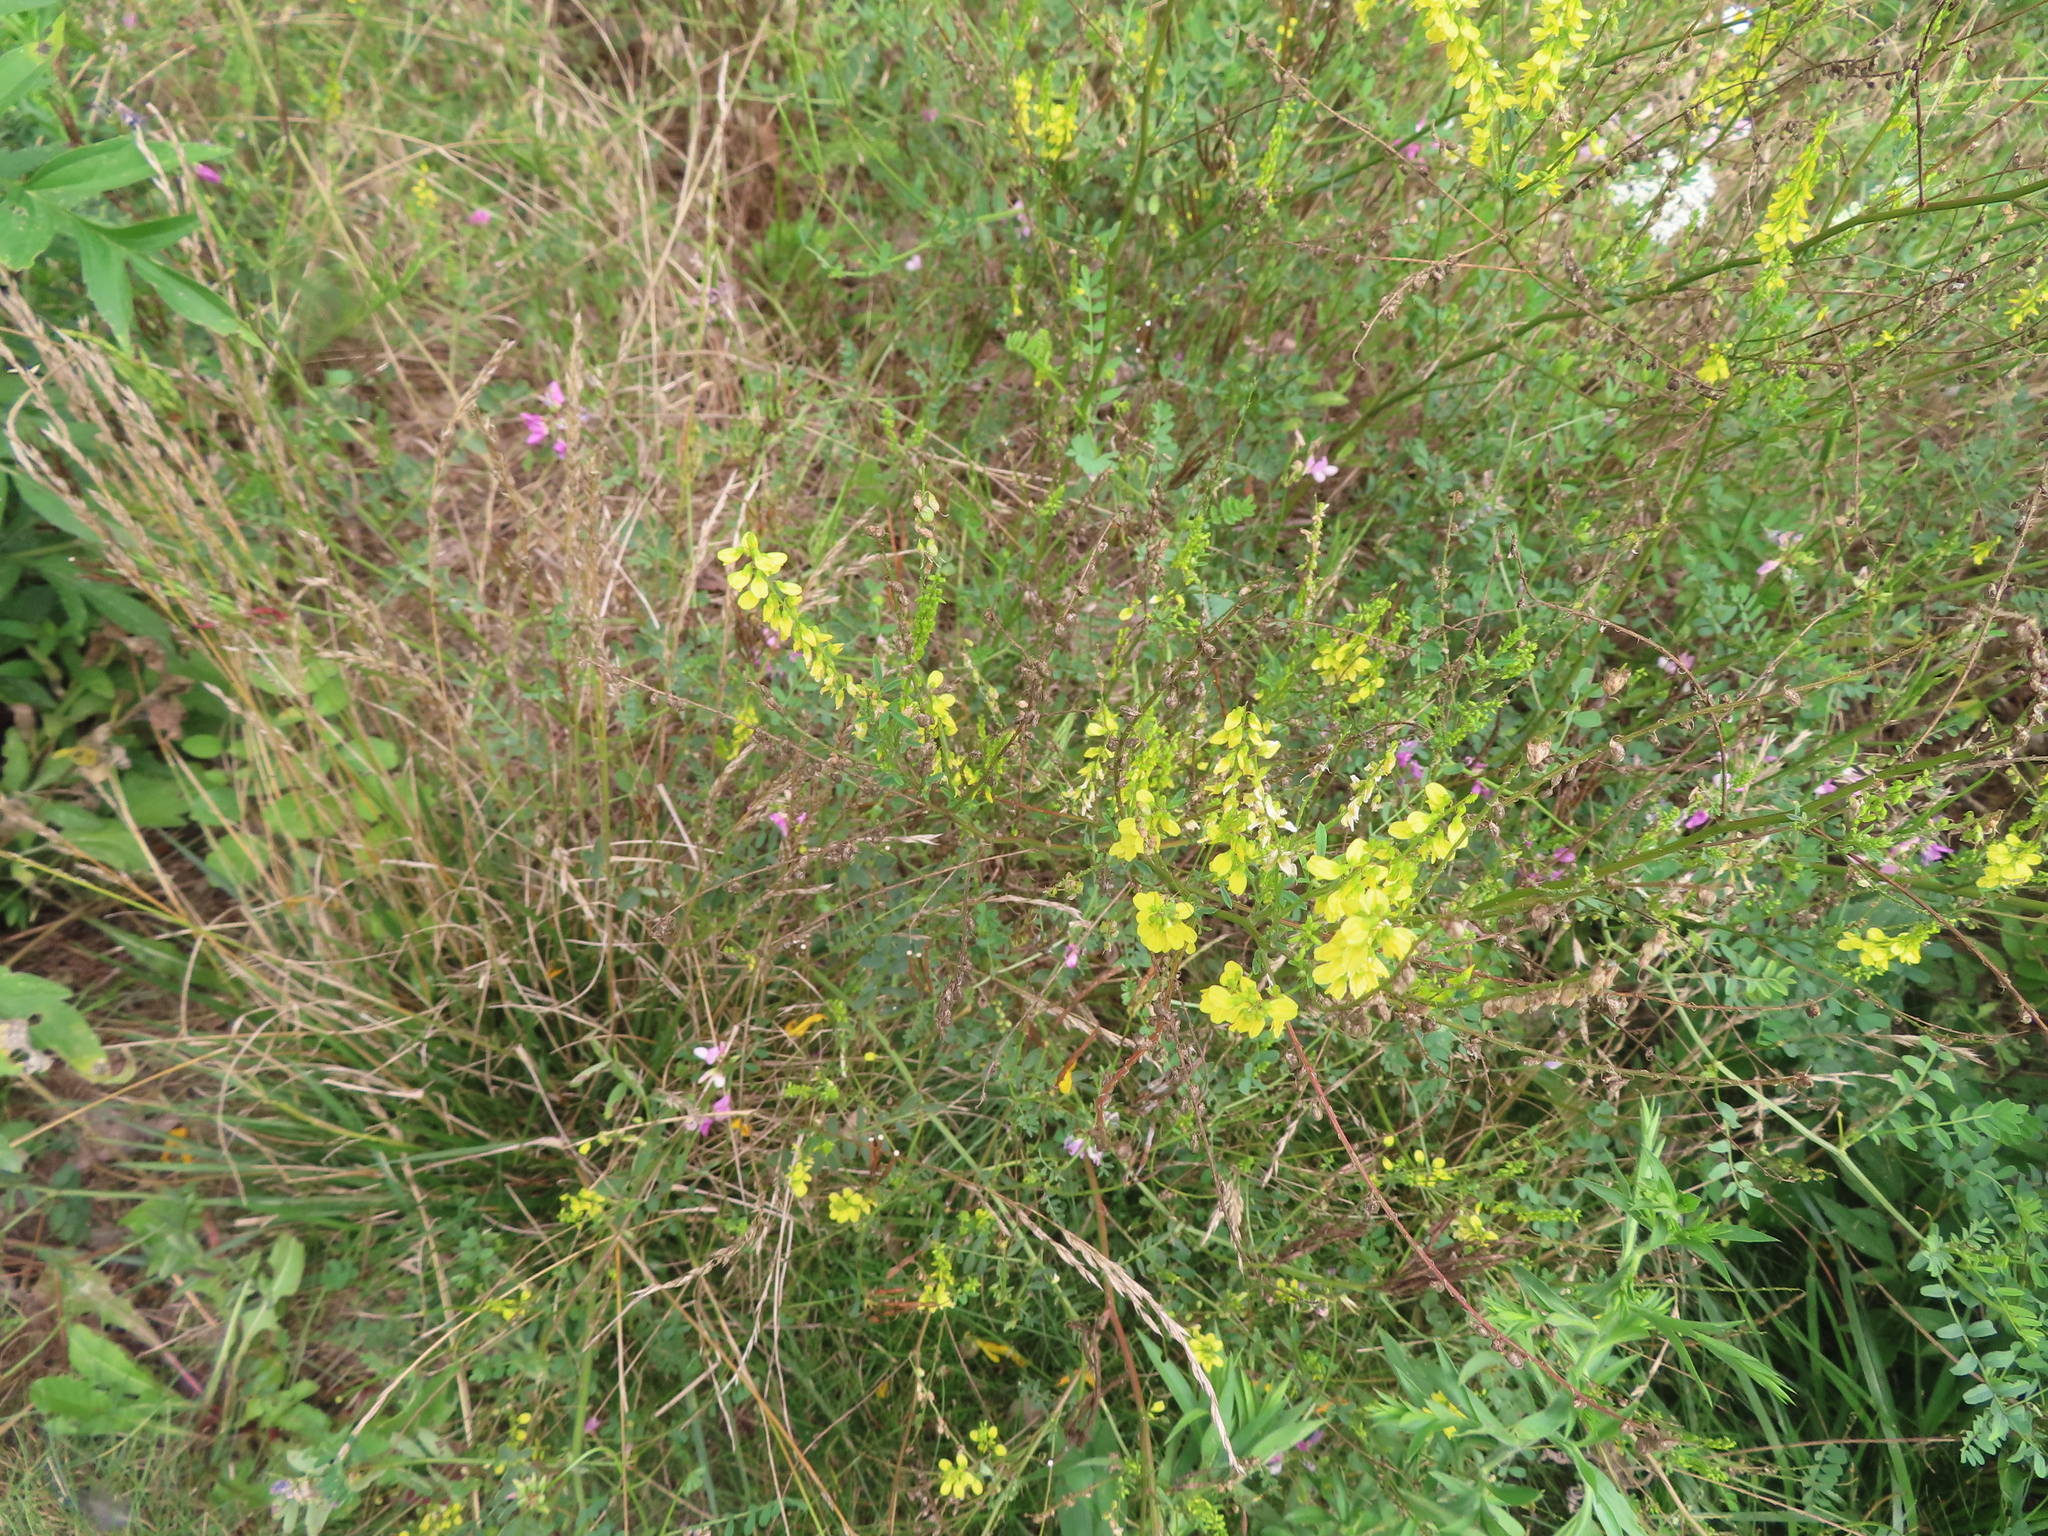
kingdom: Plantae
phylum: Tracheophyta
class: Magnoliopsida
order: Fabales
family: Fabaceae
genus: Melilotus
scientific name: Melilotus officinalis
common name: Sweetclover
